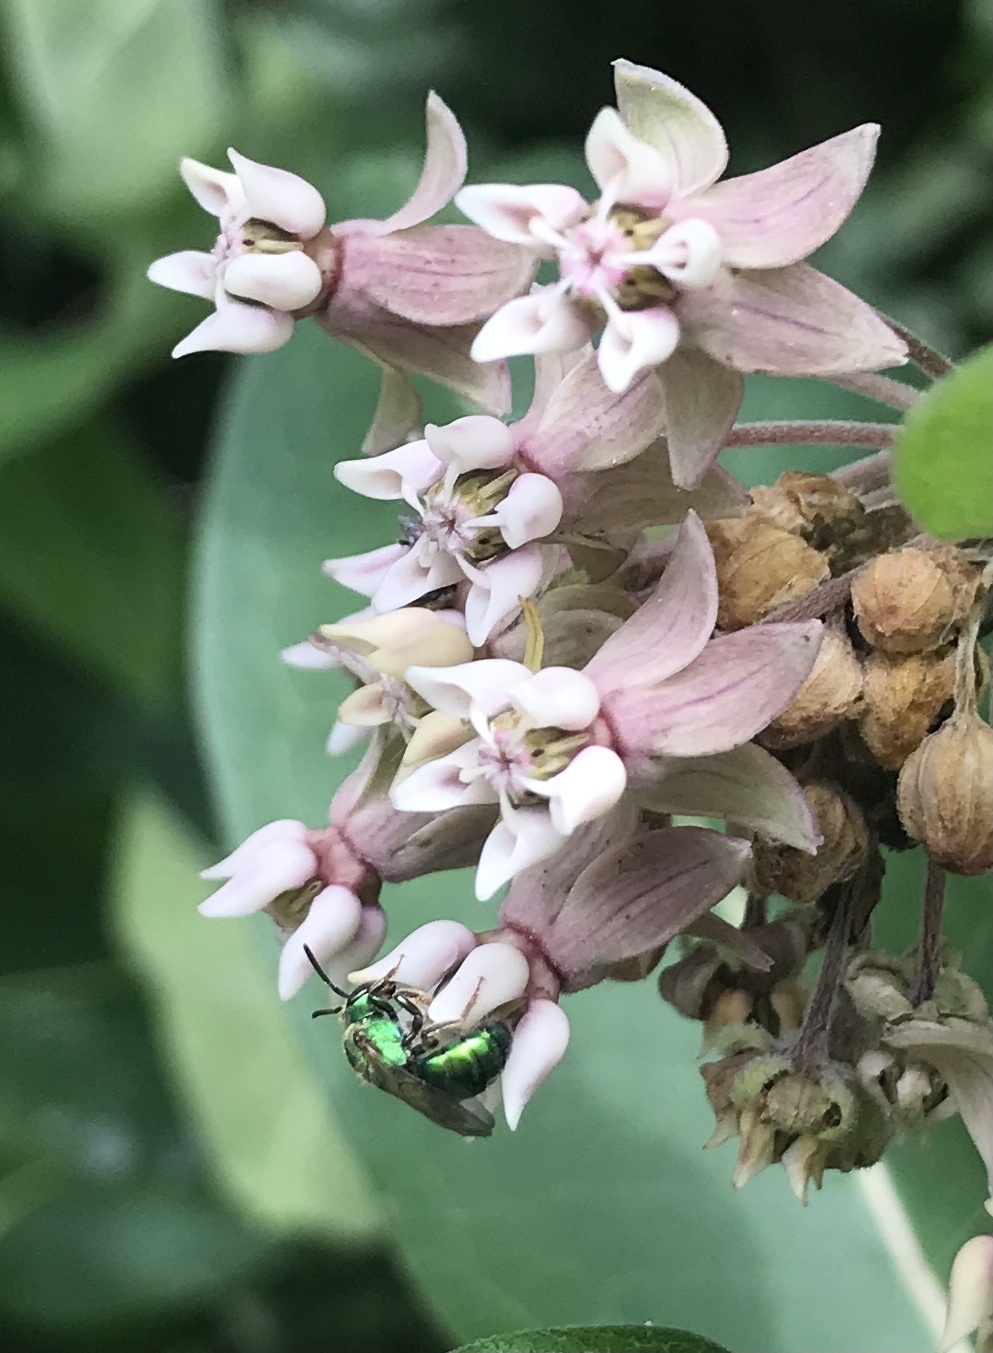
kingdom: Plantae
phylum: Tracheophyta
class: Magnoliopsida
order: Gentianales
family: Apocynaceae
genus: Asclepias
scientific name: Asclepias syriaca
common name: Common milkweed
